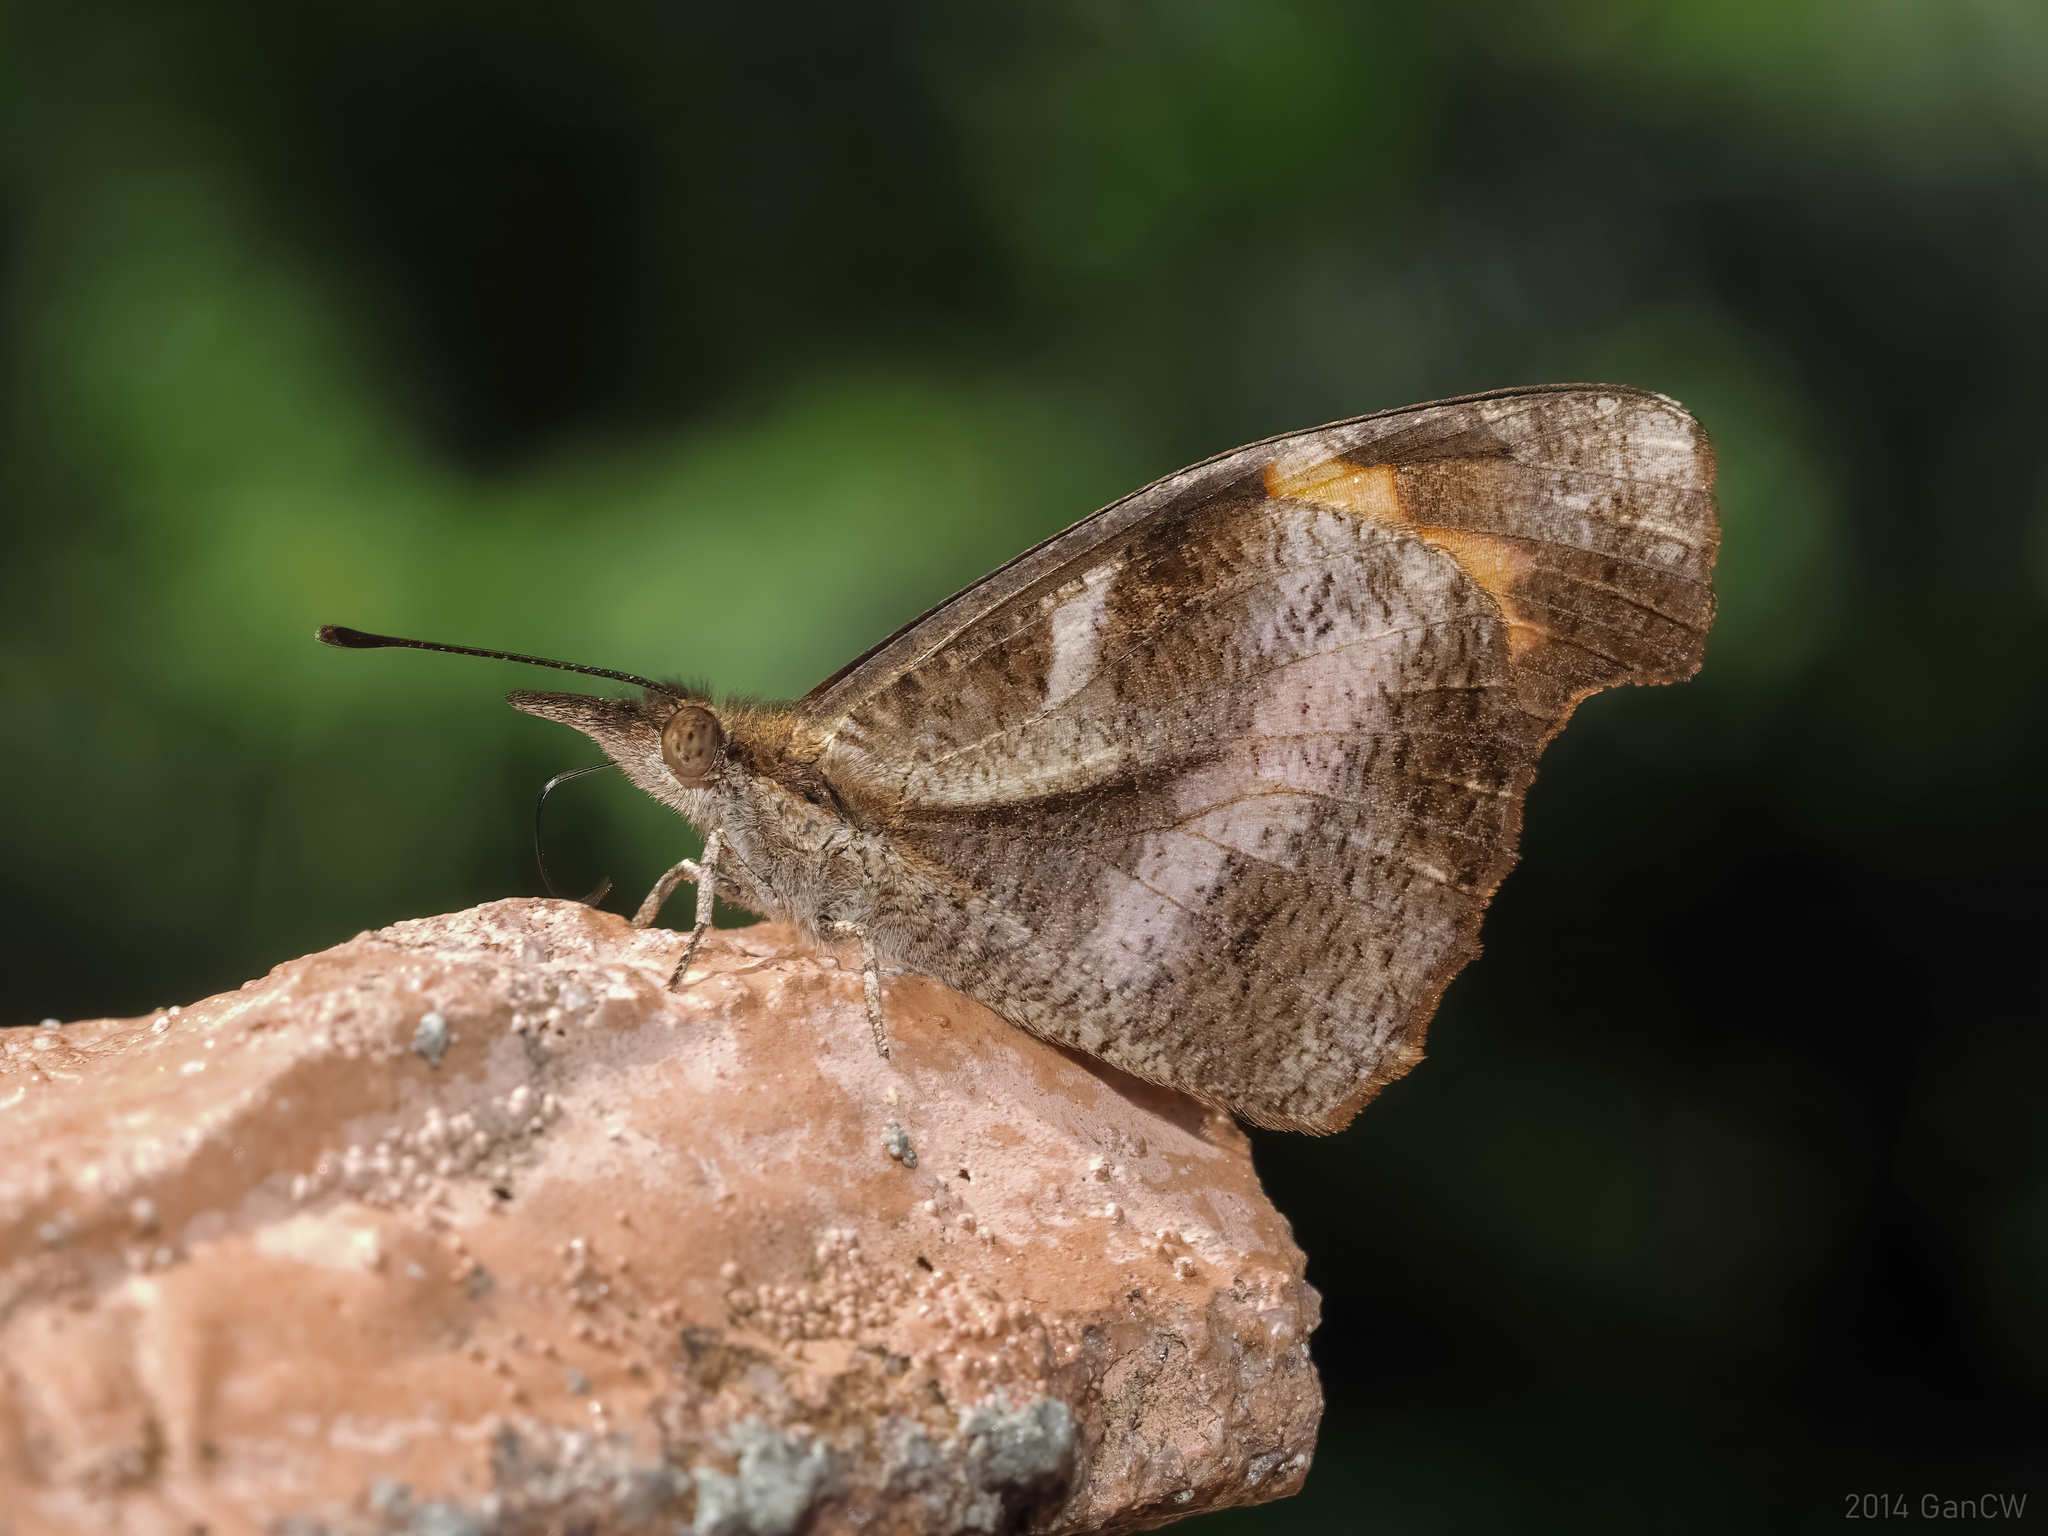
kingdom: Animalia
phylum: Arthropoda
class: Insecta
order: Lepidoptera
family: Nymphalidae
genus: Libythea
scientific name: Libythea myrrha
